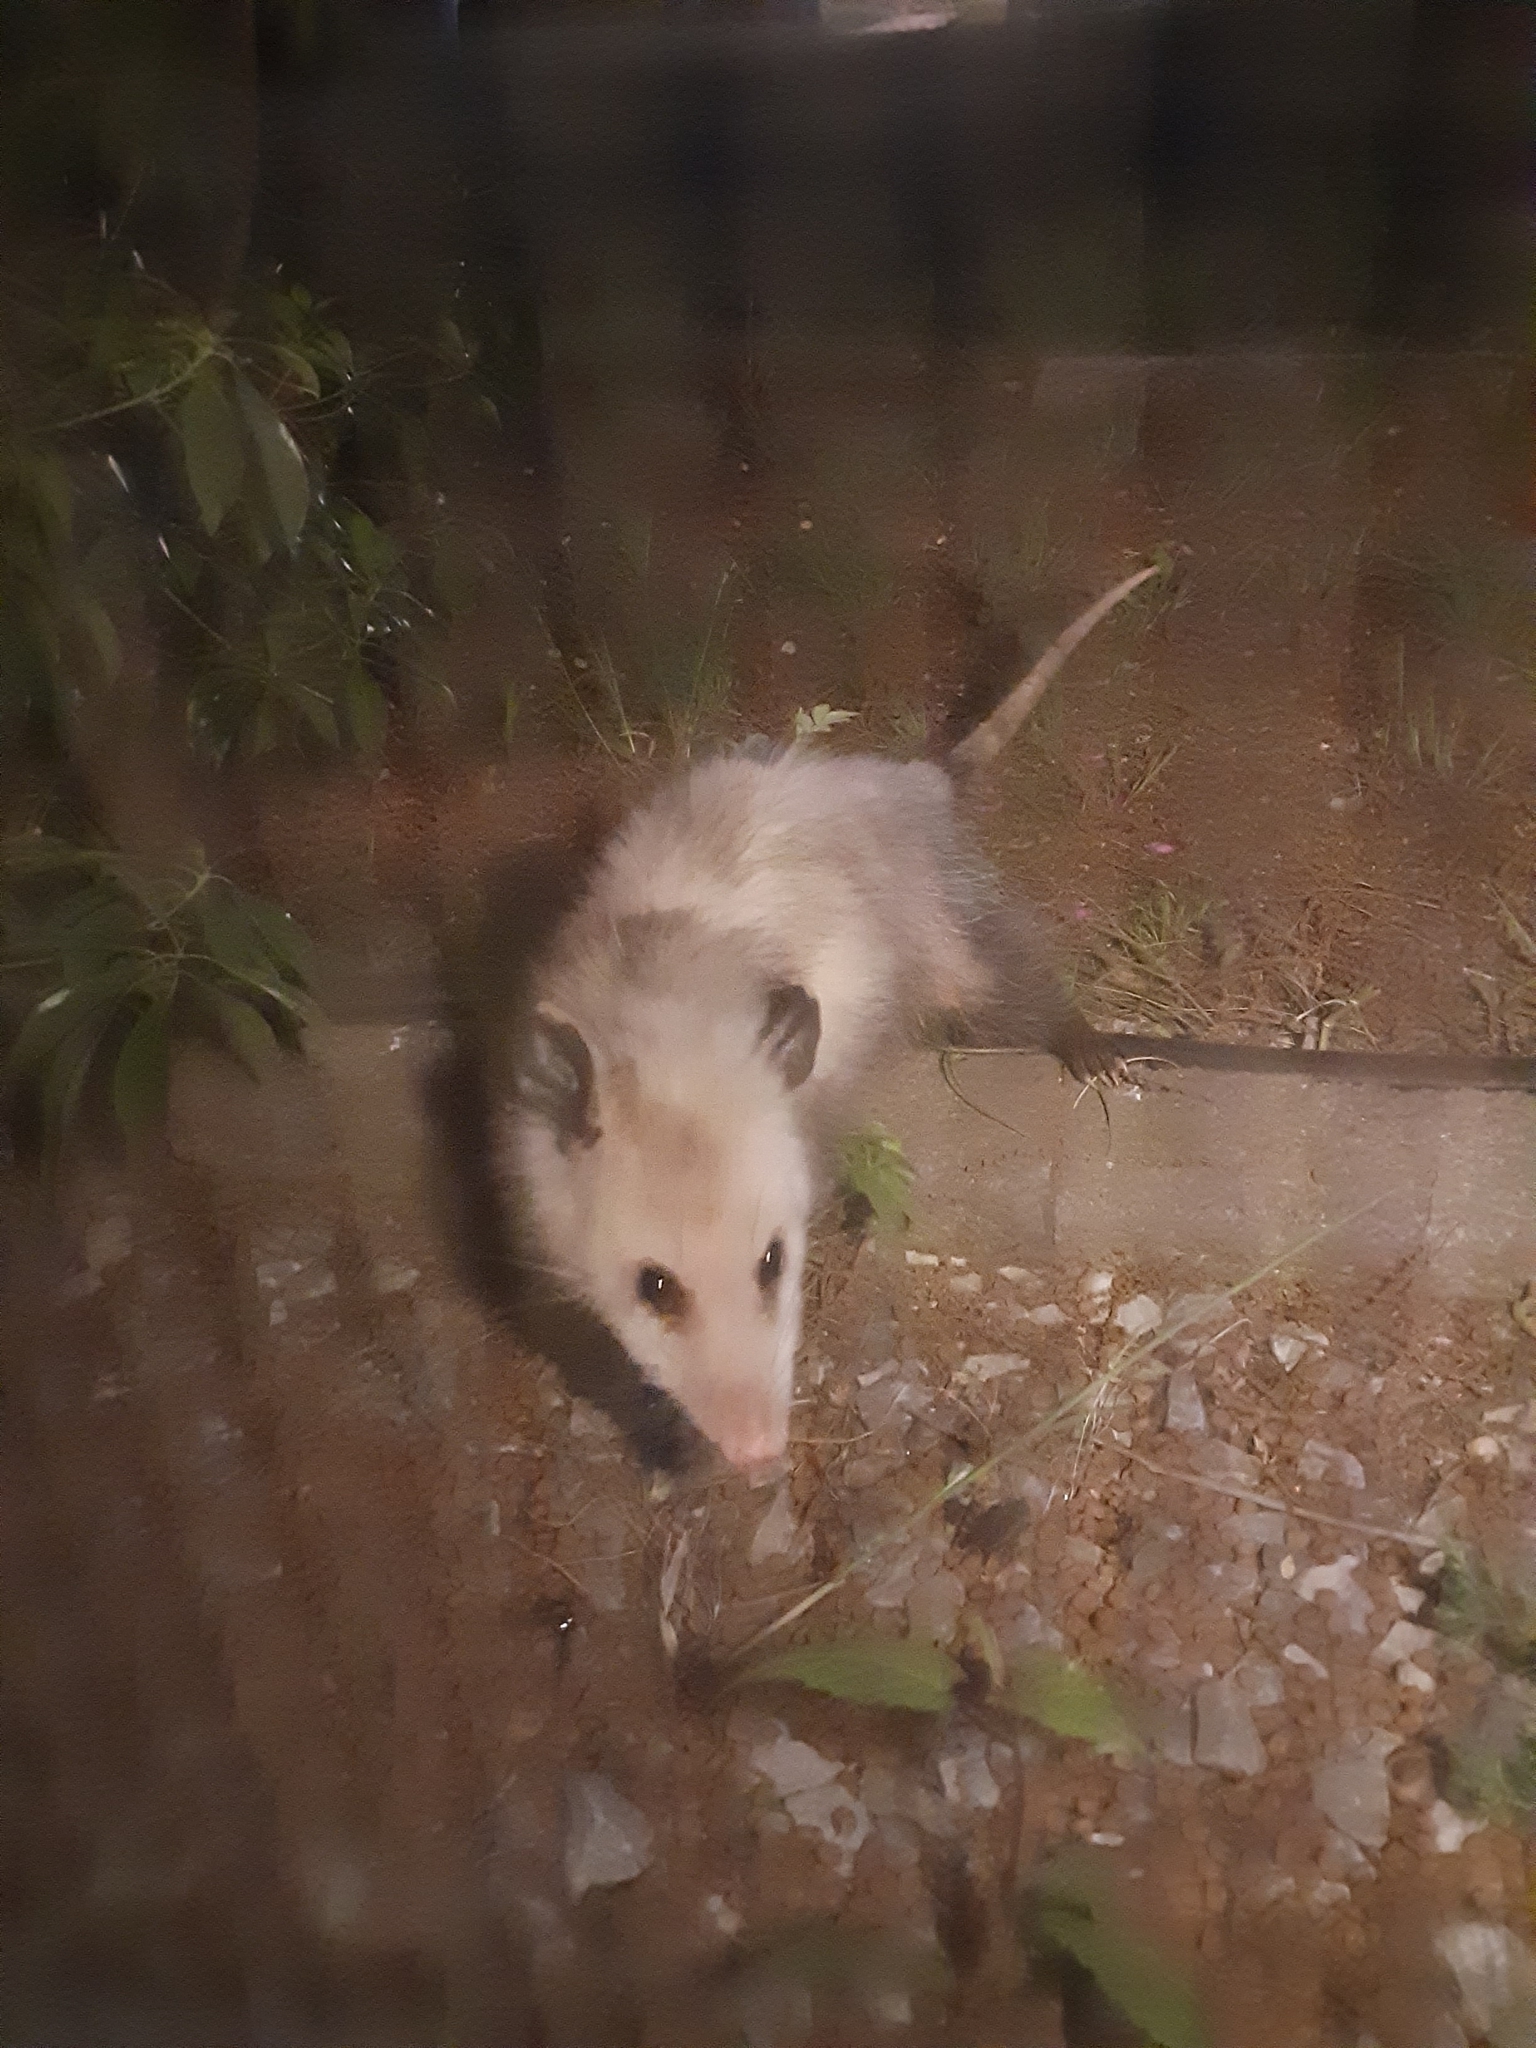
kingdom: Animalia
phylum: Chordata
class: Mammalia
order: Didelphimorphia
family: Didelphidae
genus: Didelphis
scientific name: Didelphis virginiana
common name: Virginia opossum
